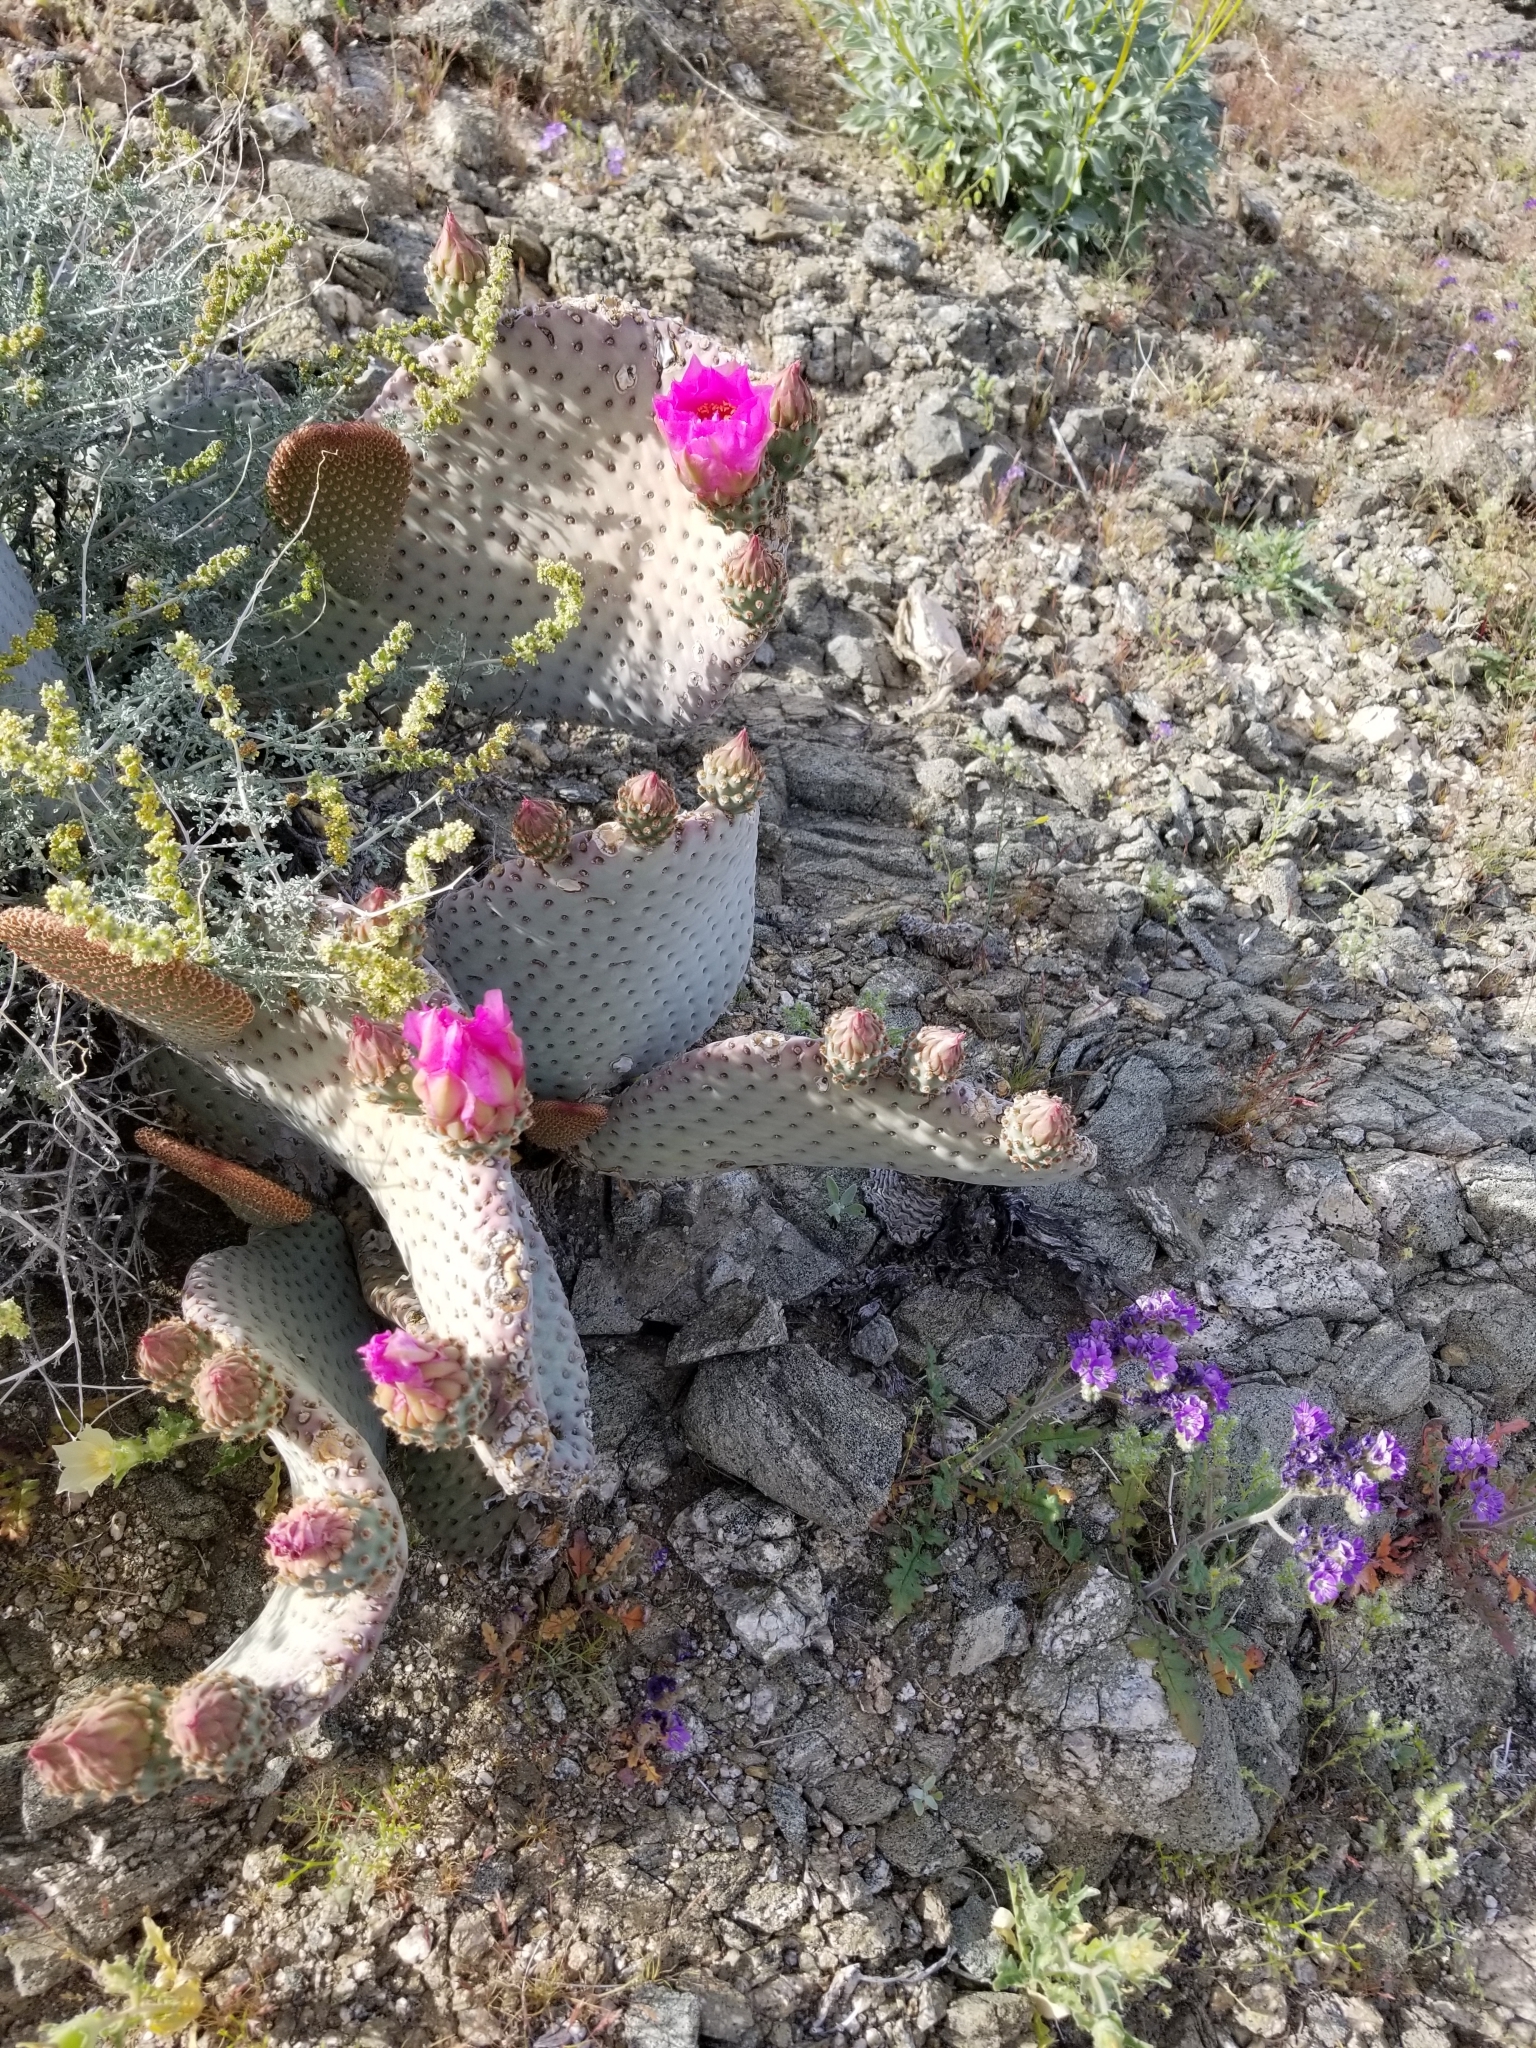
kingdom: Plantae
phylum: Tracheophyta
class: Magnoliopsida
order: Caryophyllales
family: Cactaceae
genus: Opuntia
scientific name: Opuntia basilaris
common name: Beavertail prickly-pear
